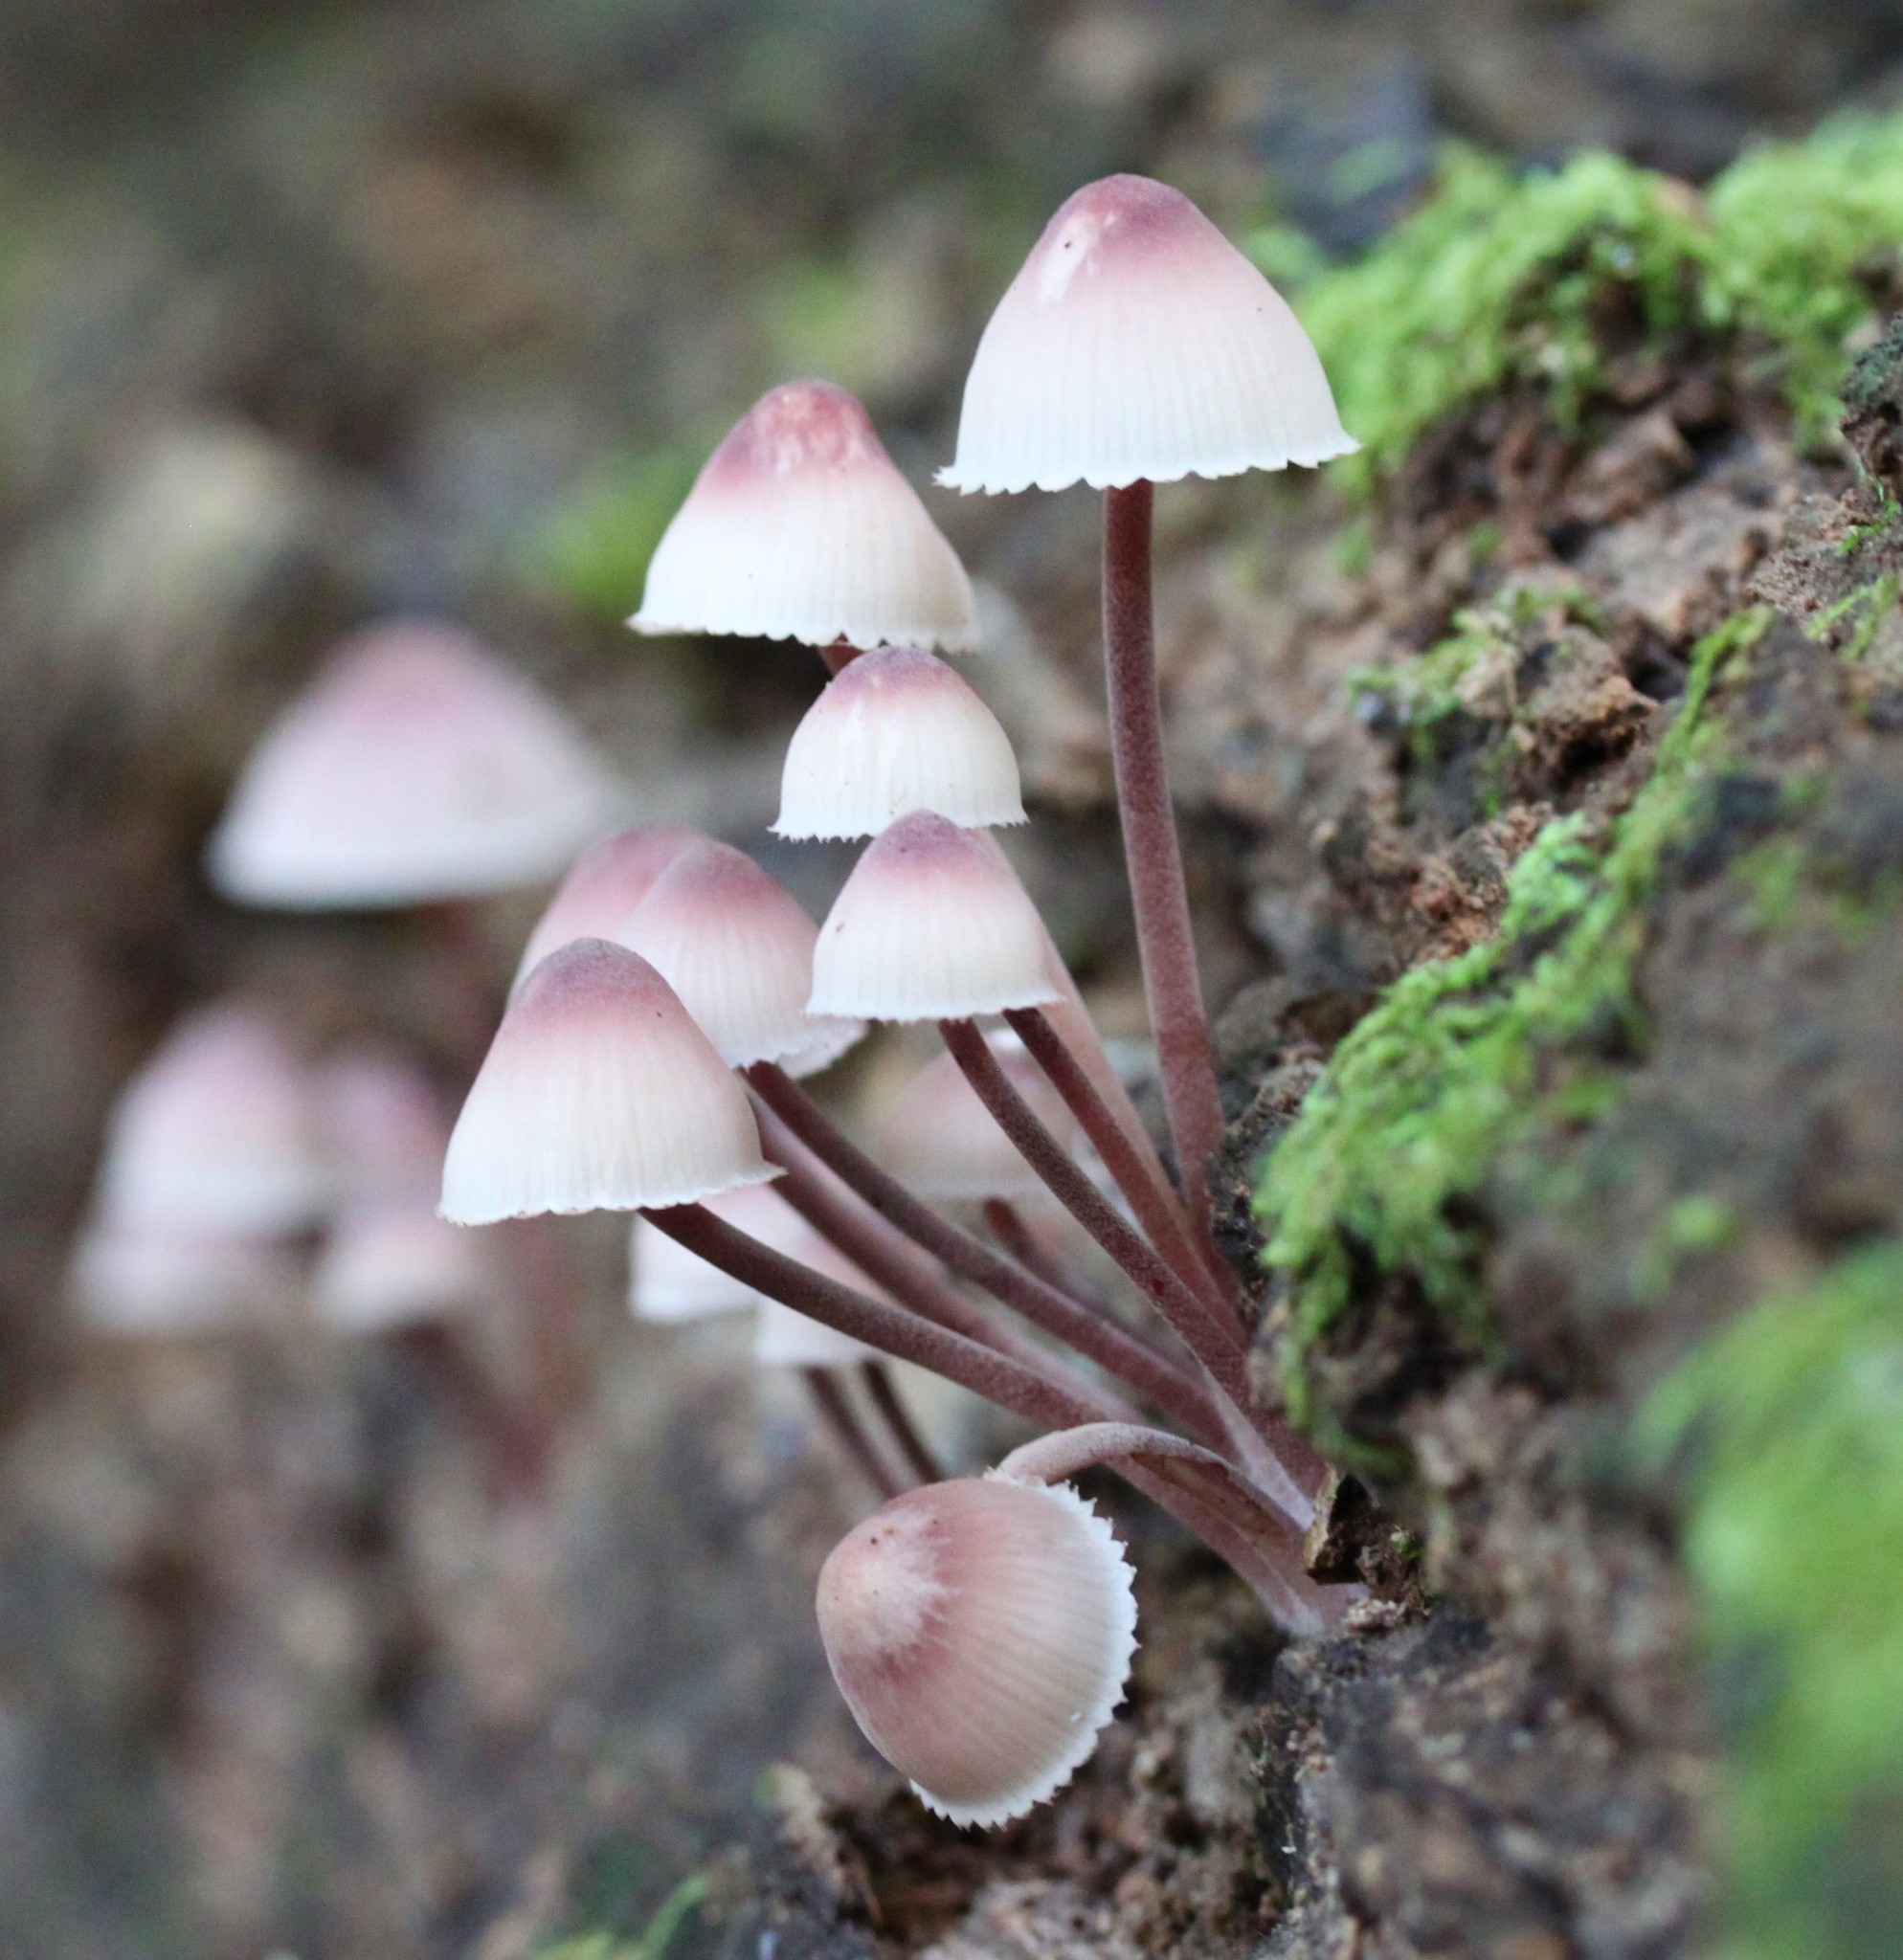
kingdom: Fungi
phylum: Basidiomycota
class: Agaricomycetes
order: Agaricales
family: Mycenaceae
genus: Mycena
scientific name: Mycena haematopus
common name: Burgundydrop bonnet
